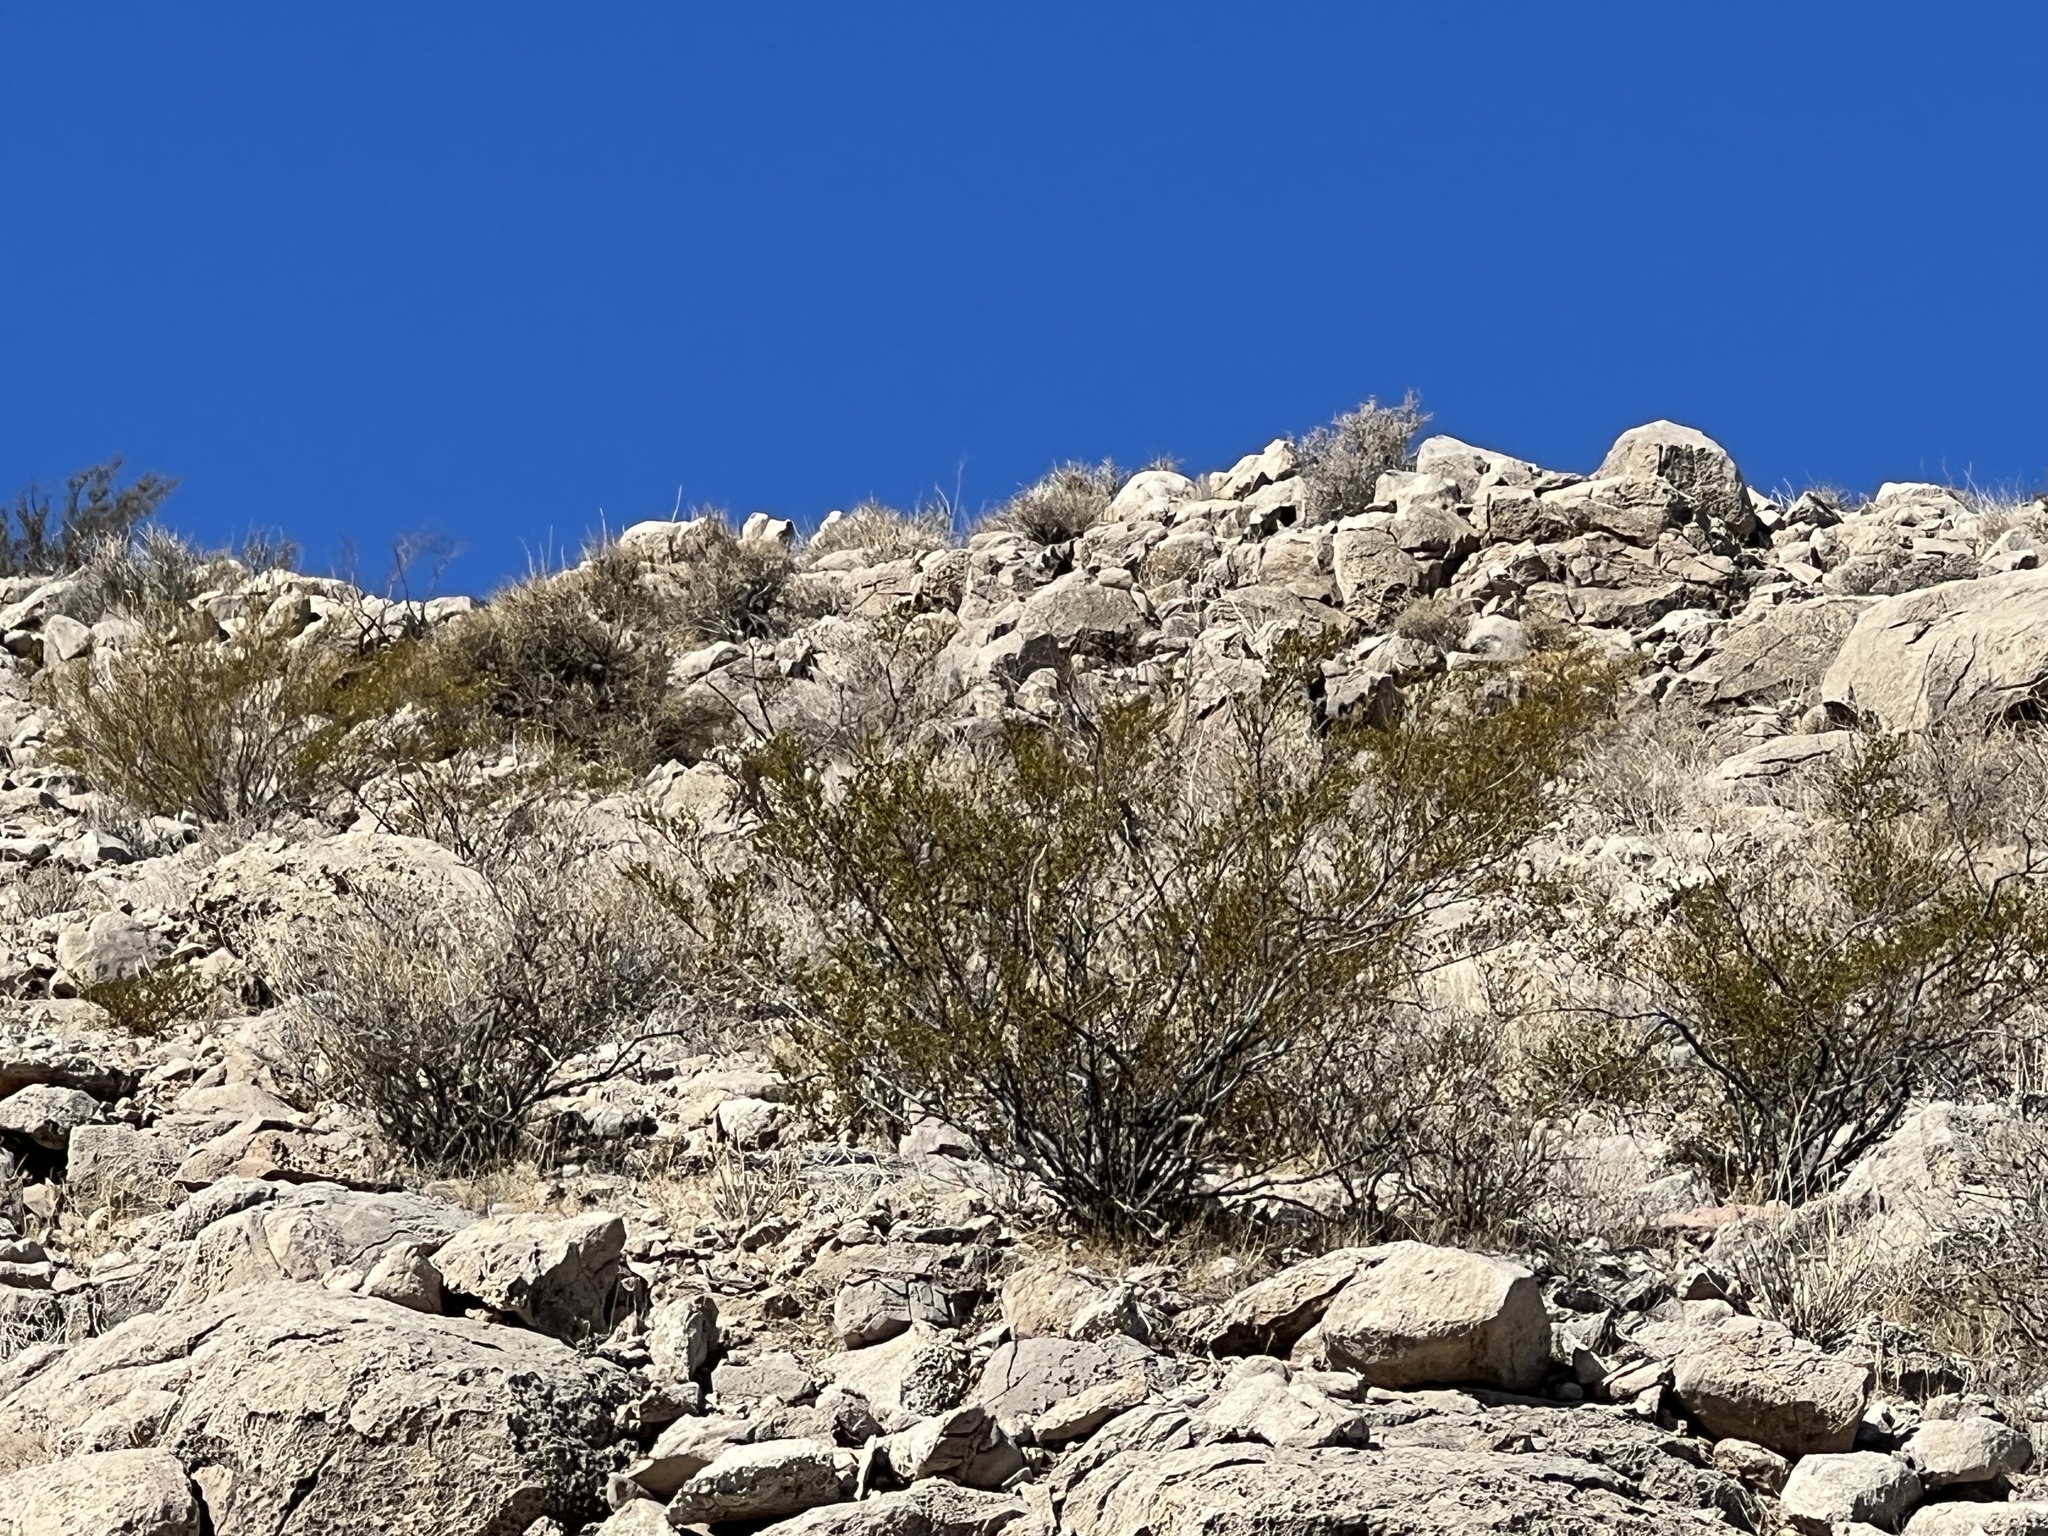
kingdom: Plantae
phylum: Tracheophyta
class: Magnoliopsida
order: Zygophyllales
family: Zygophyllaceae
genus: Larrea
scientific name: Larrea tridentata
